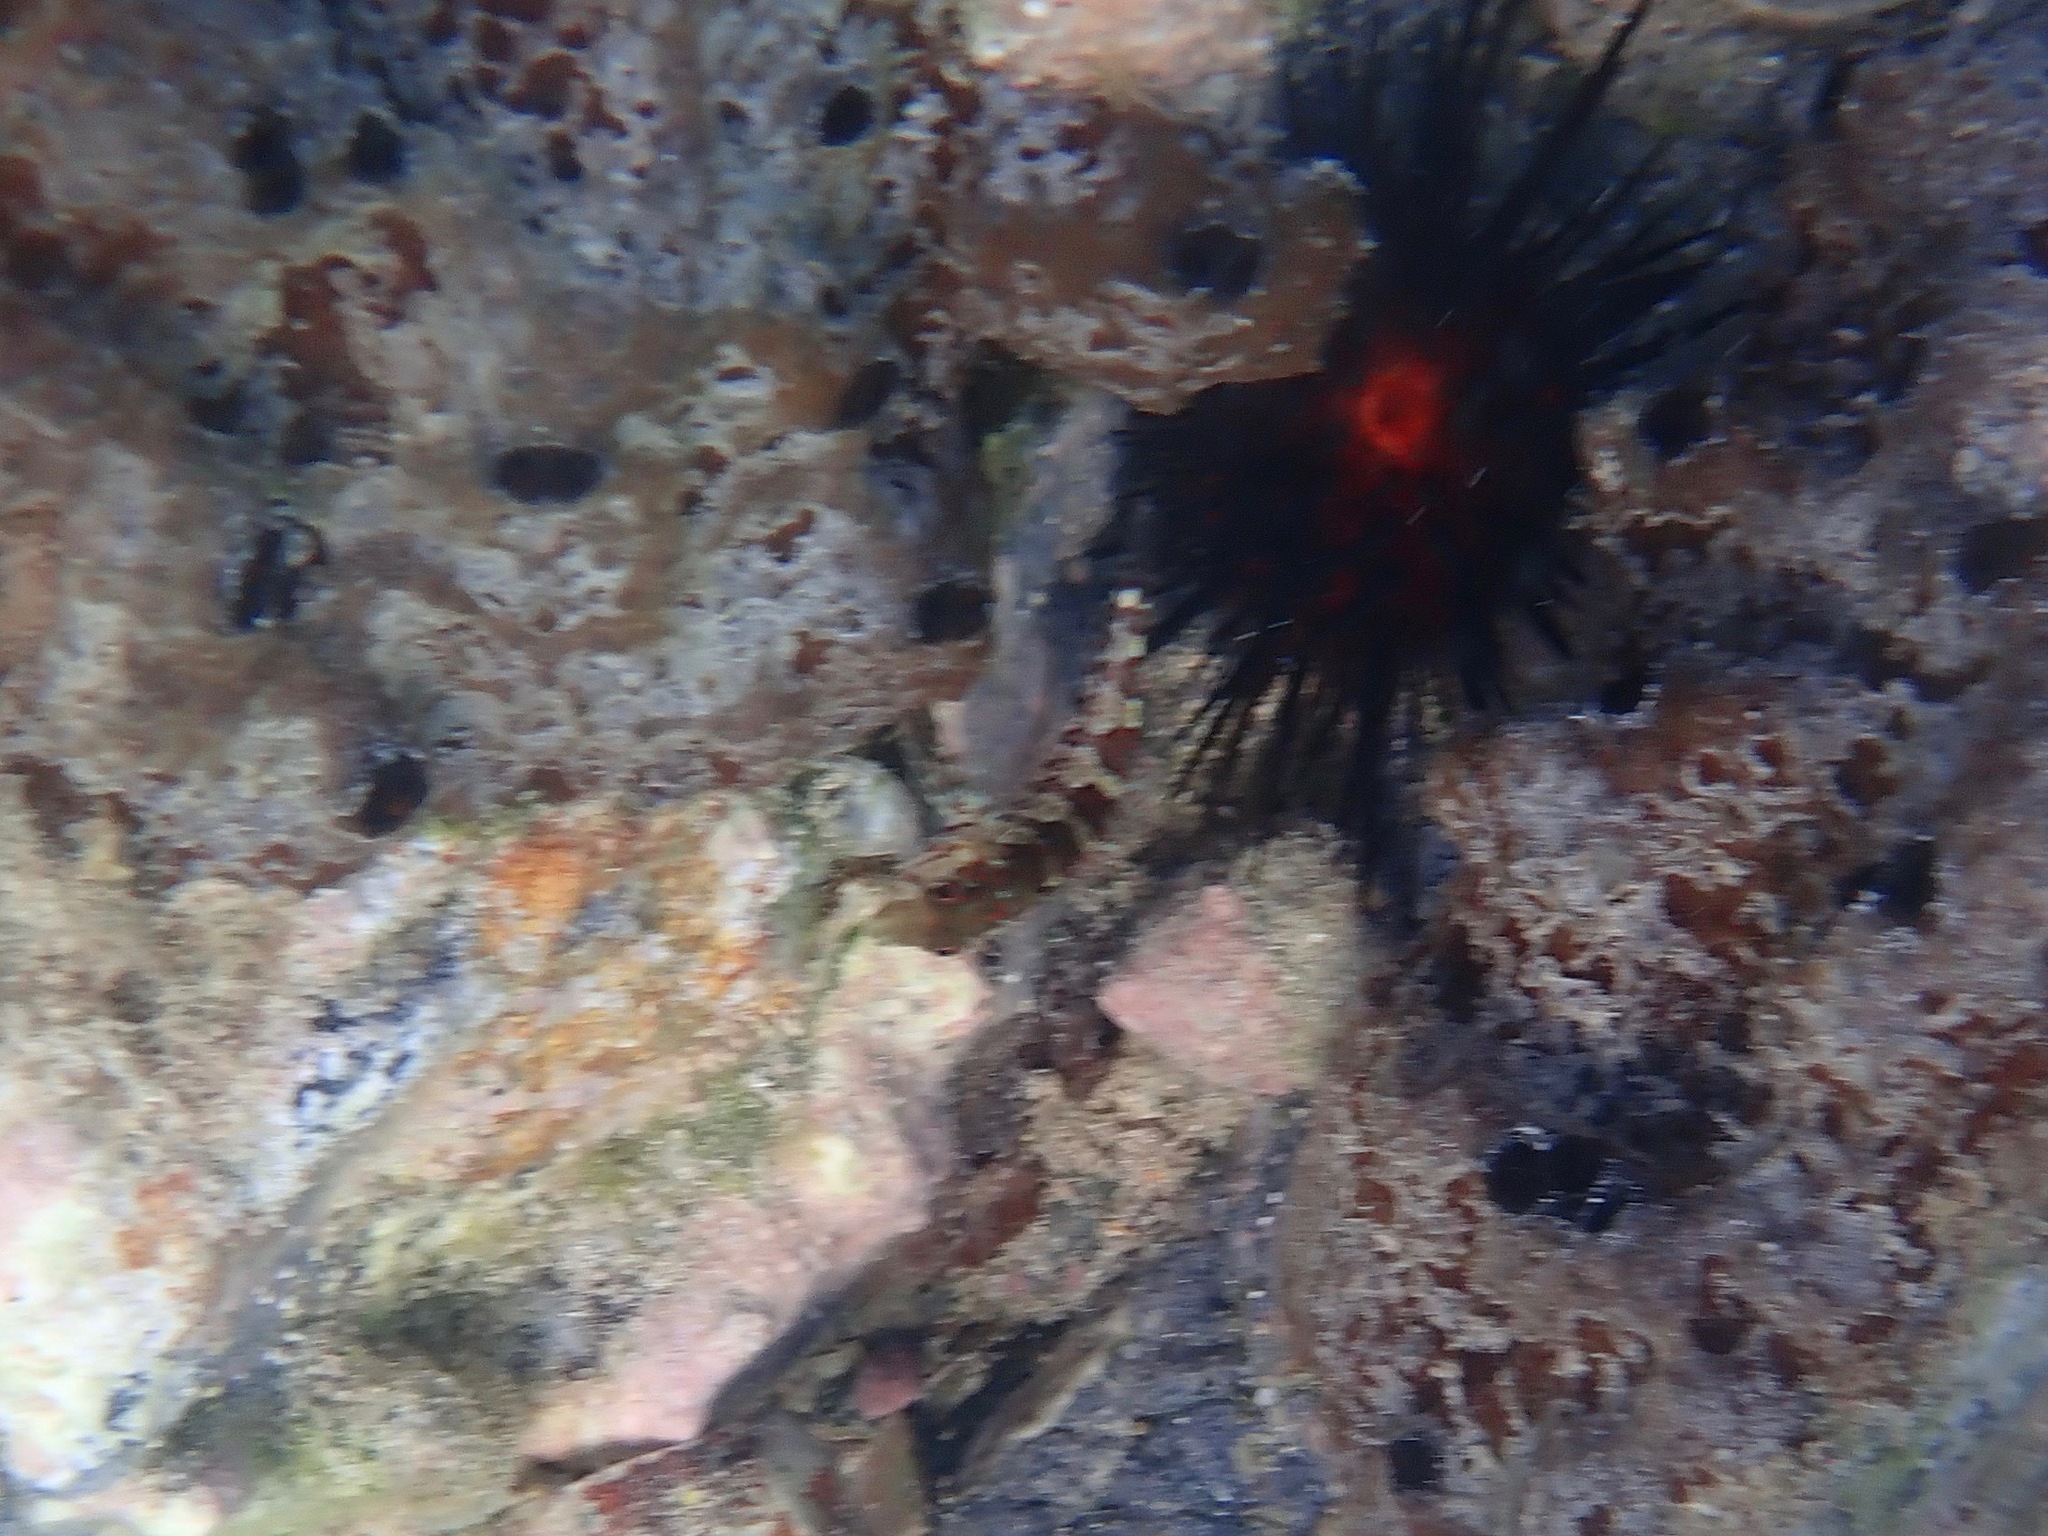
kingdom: Animalia
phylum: Chordata
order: Perciformes
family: Labrisomidae
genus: Malacoctenus
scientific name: Malacoctenus triangulatus
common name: Saddled blenny
